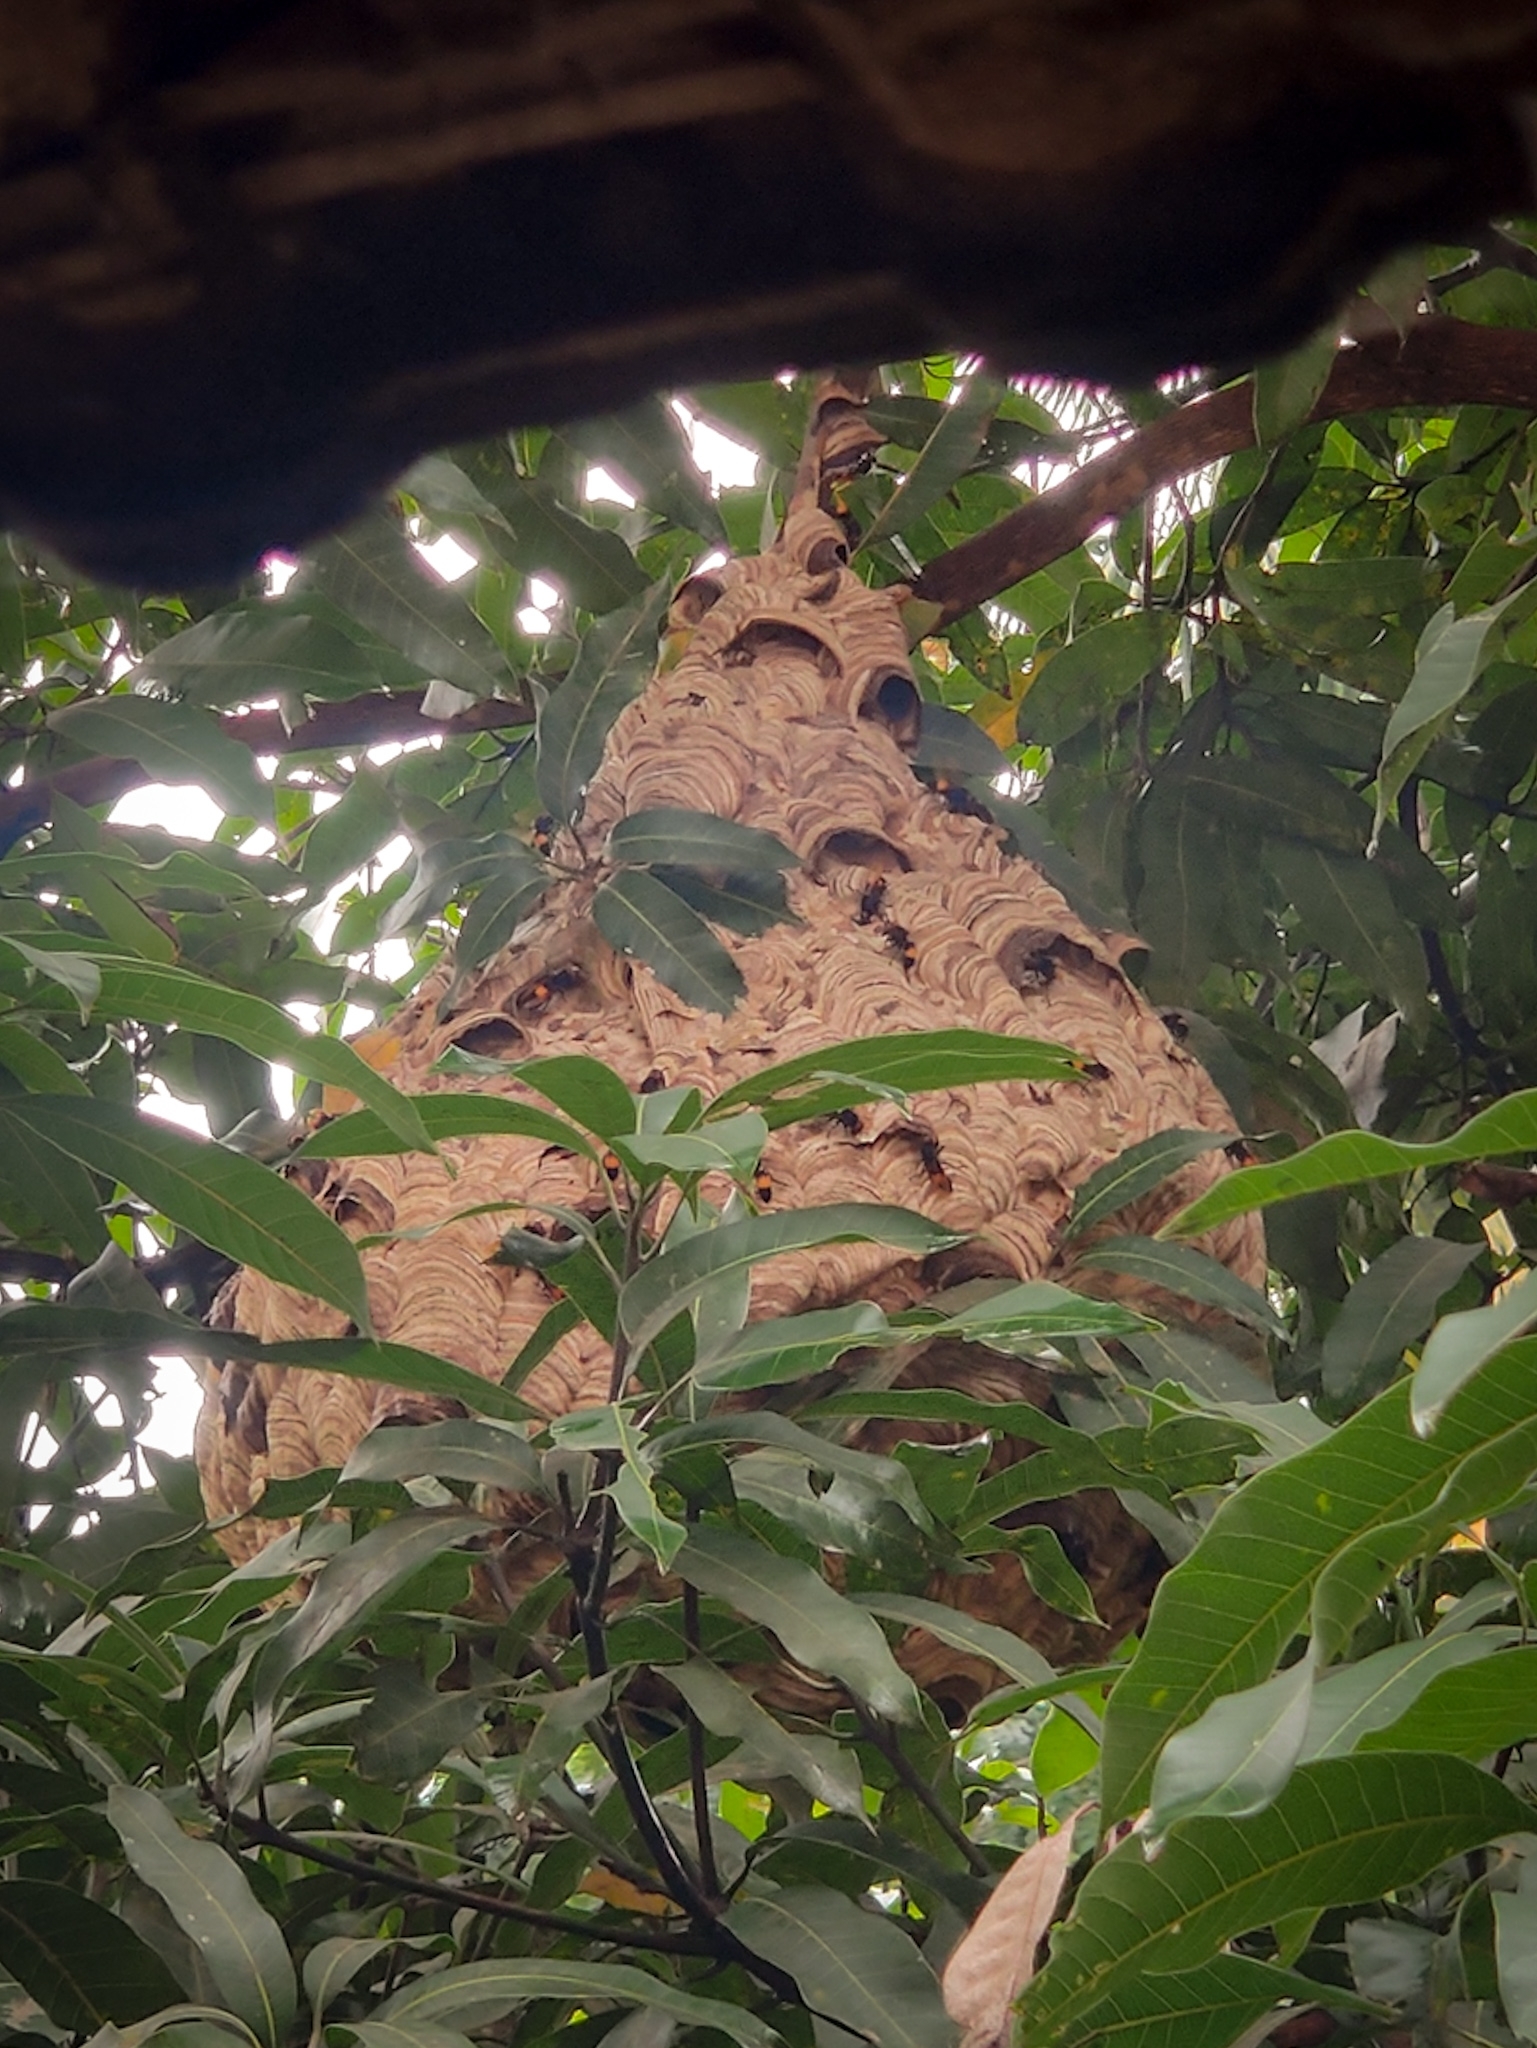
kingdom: Animalia
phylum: Arthropoda
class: Insecta
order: Hymenoptera
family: Vespidae
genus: Vespa
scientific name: Vespa affinis
